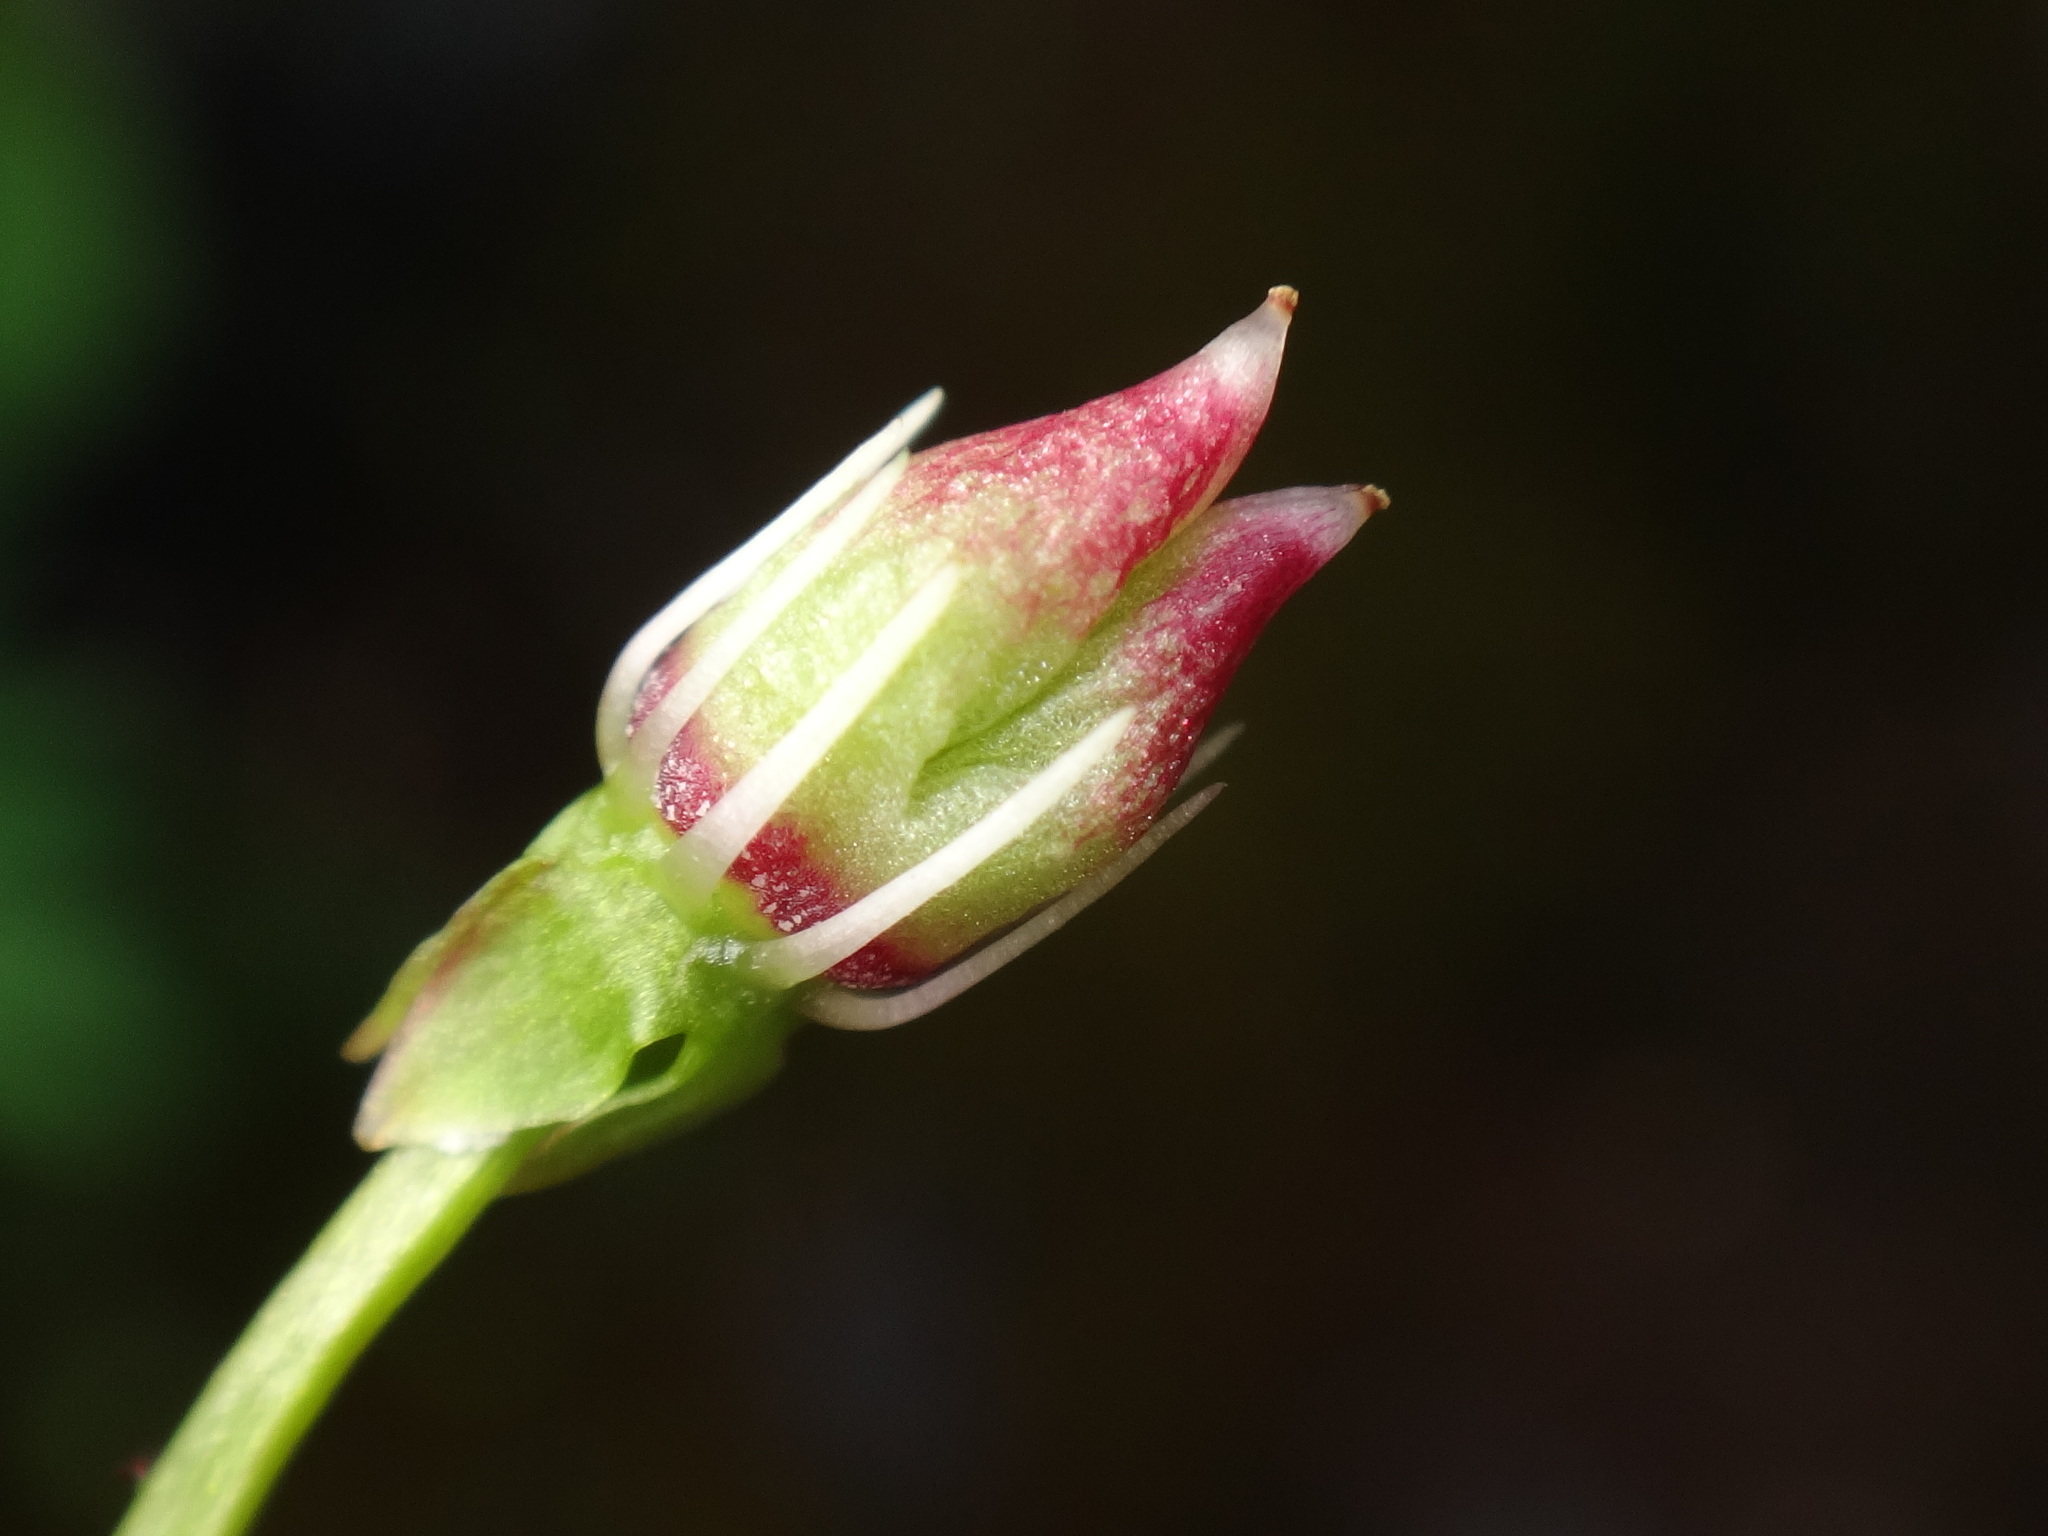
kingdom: Plantae
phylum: Tracheophyta
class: Magnoliopsida
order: Saxifragales
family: Saxifragaceae
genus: Micranthes
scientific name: Micranthes stellaris
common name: Starry saxifrage
